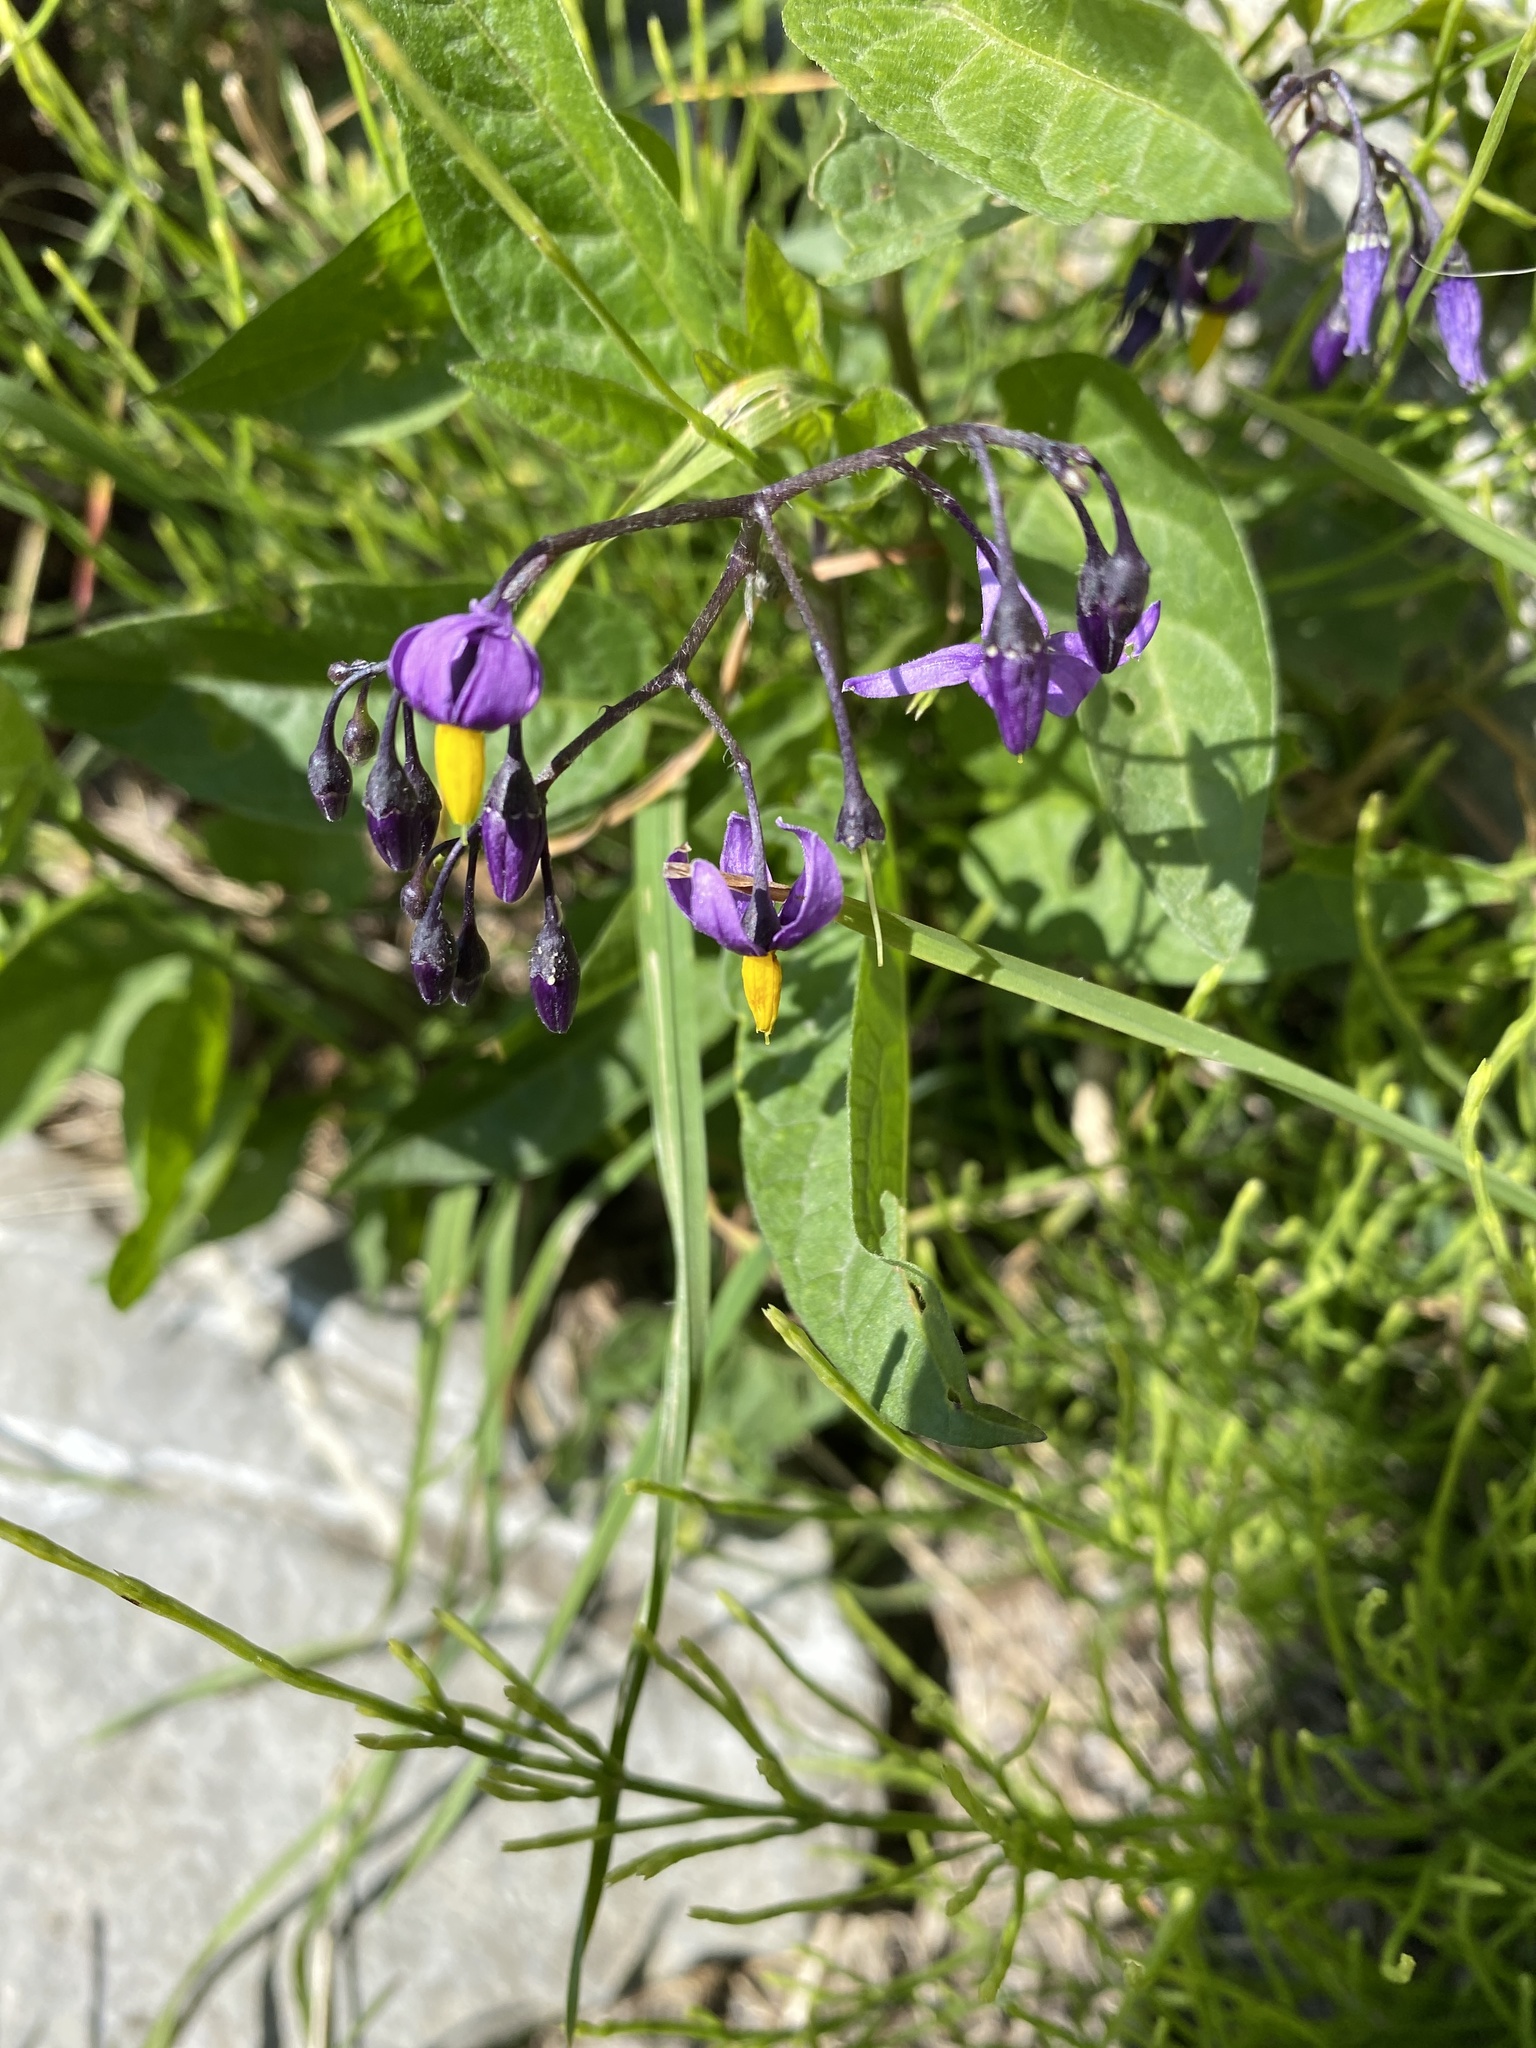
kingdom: Plantae
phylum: Tracheophyta
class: Magnoliopsida
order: Solanales
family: Solanaceae
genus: Solanum
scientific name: Solanum dulcamara
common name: Climbing nightshade
